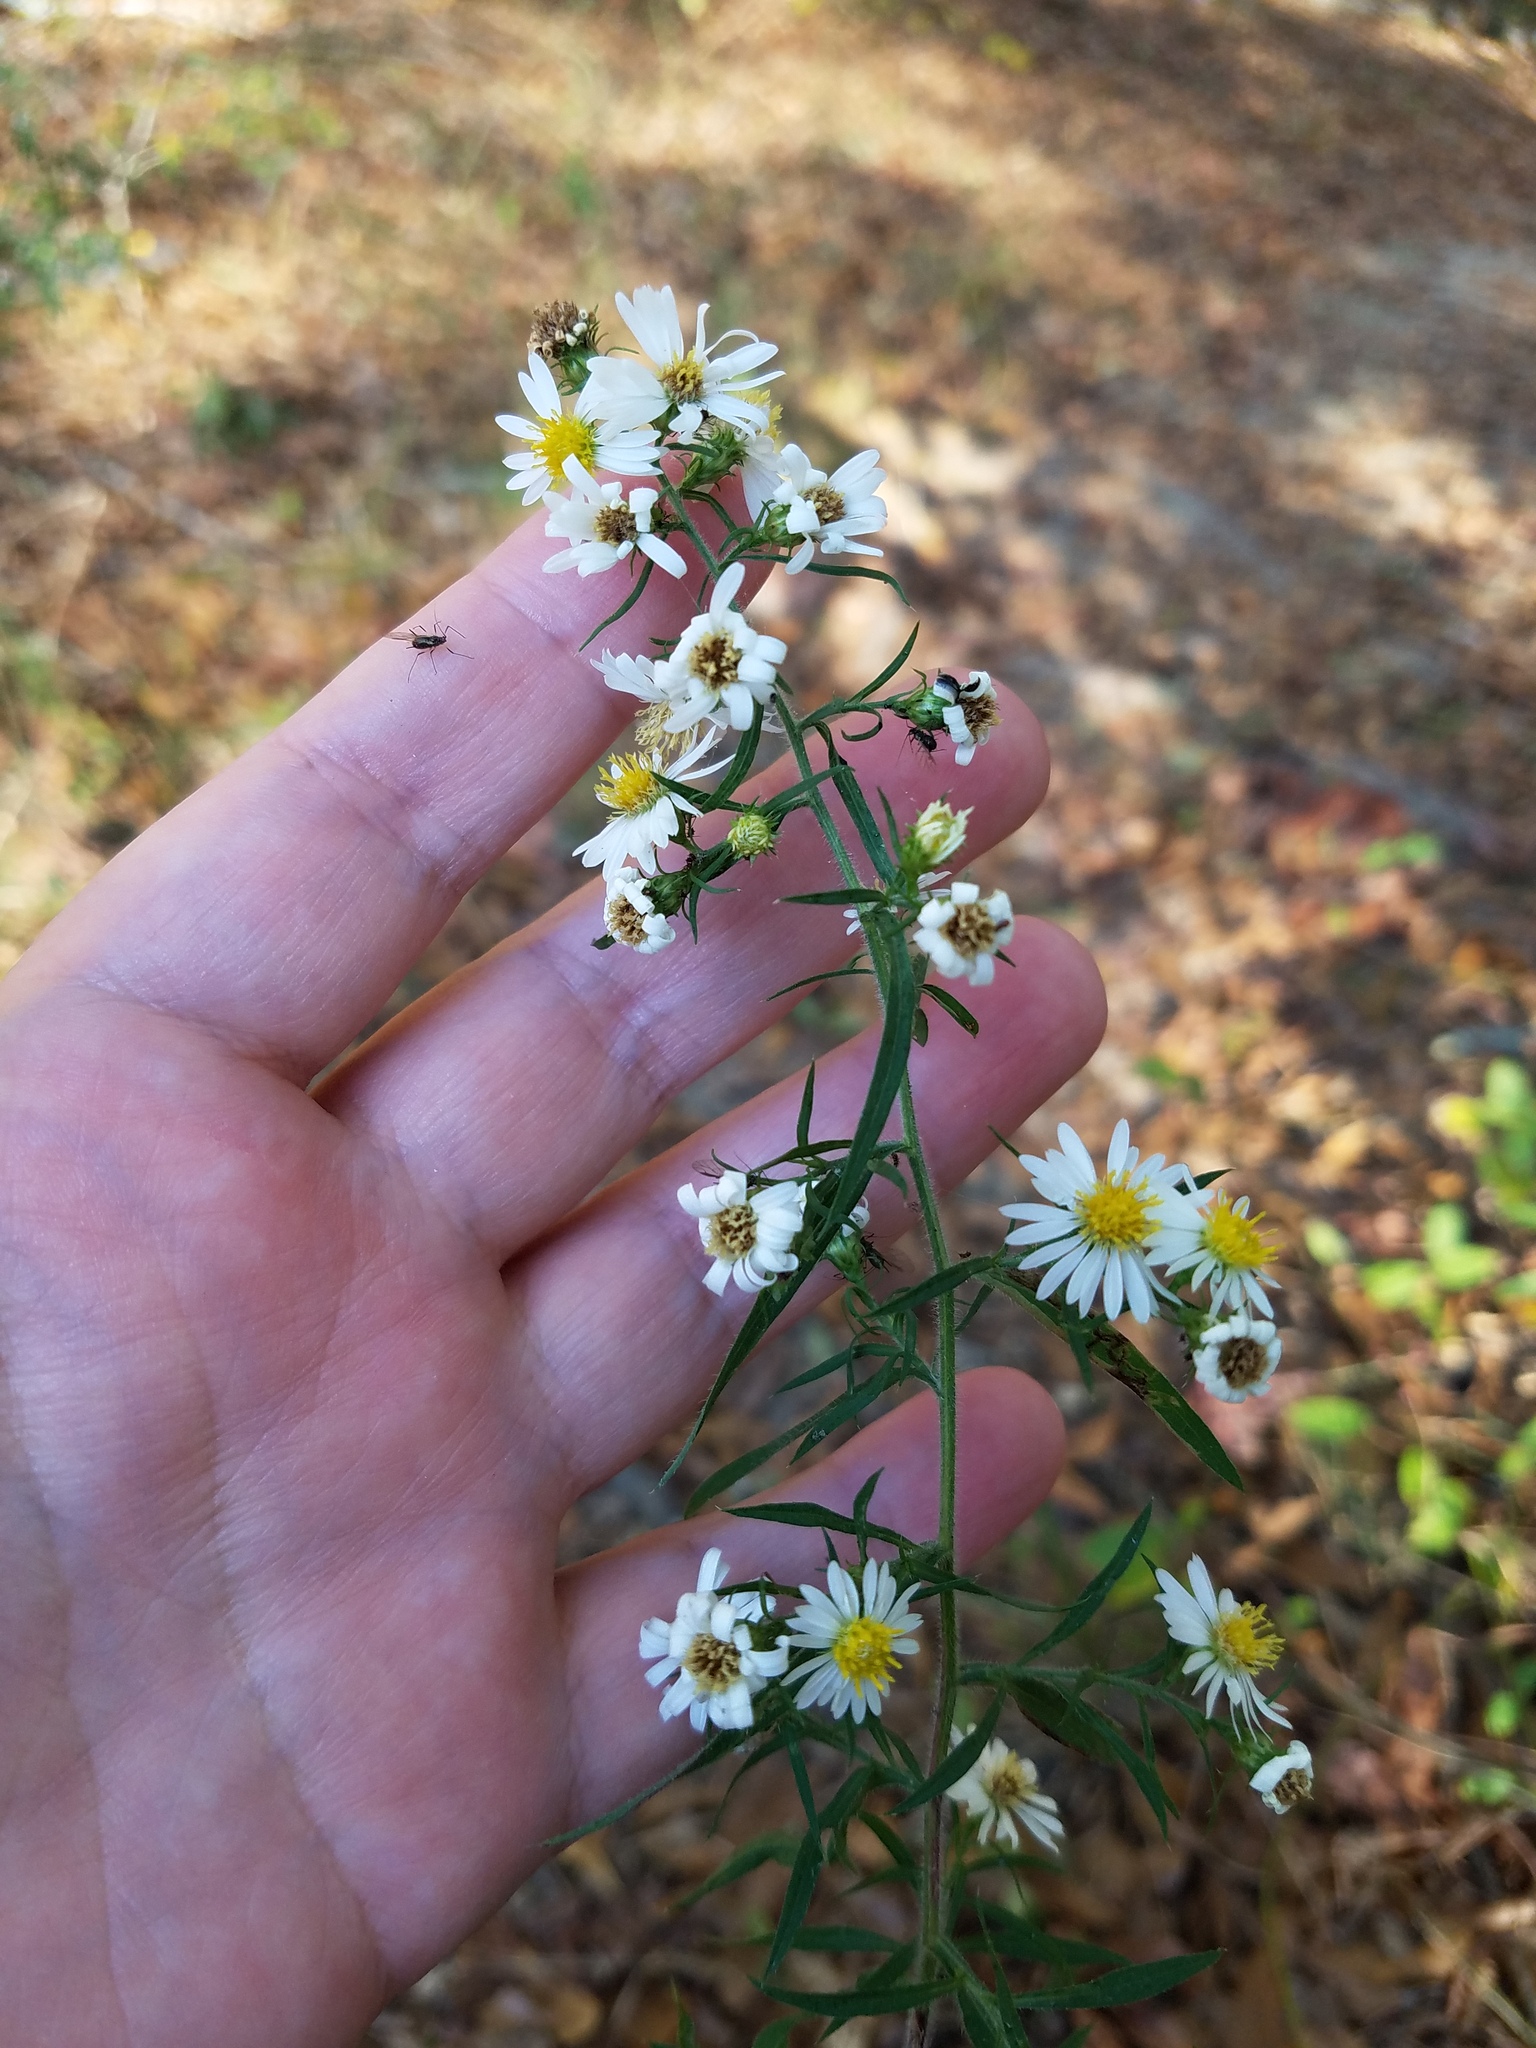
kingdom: Plantae
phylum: Tracheophyta
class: Magnoliopsida
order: Asterales
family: Asteraceae
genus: Symphyotrichum
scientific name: Symphyotrichum pilosum
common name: Awl aster
